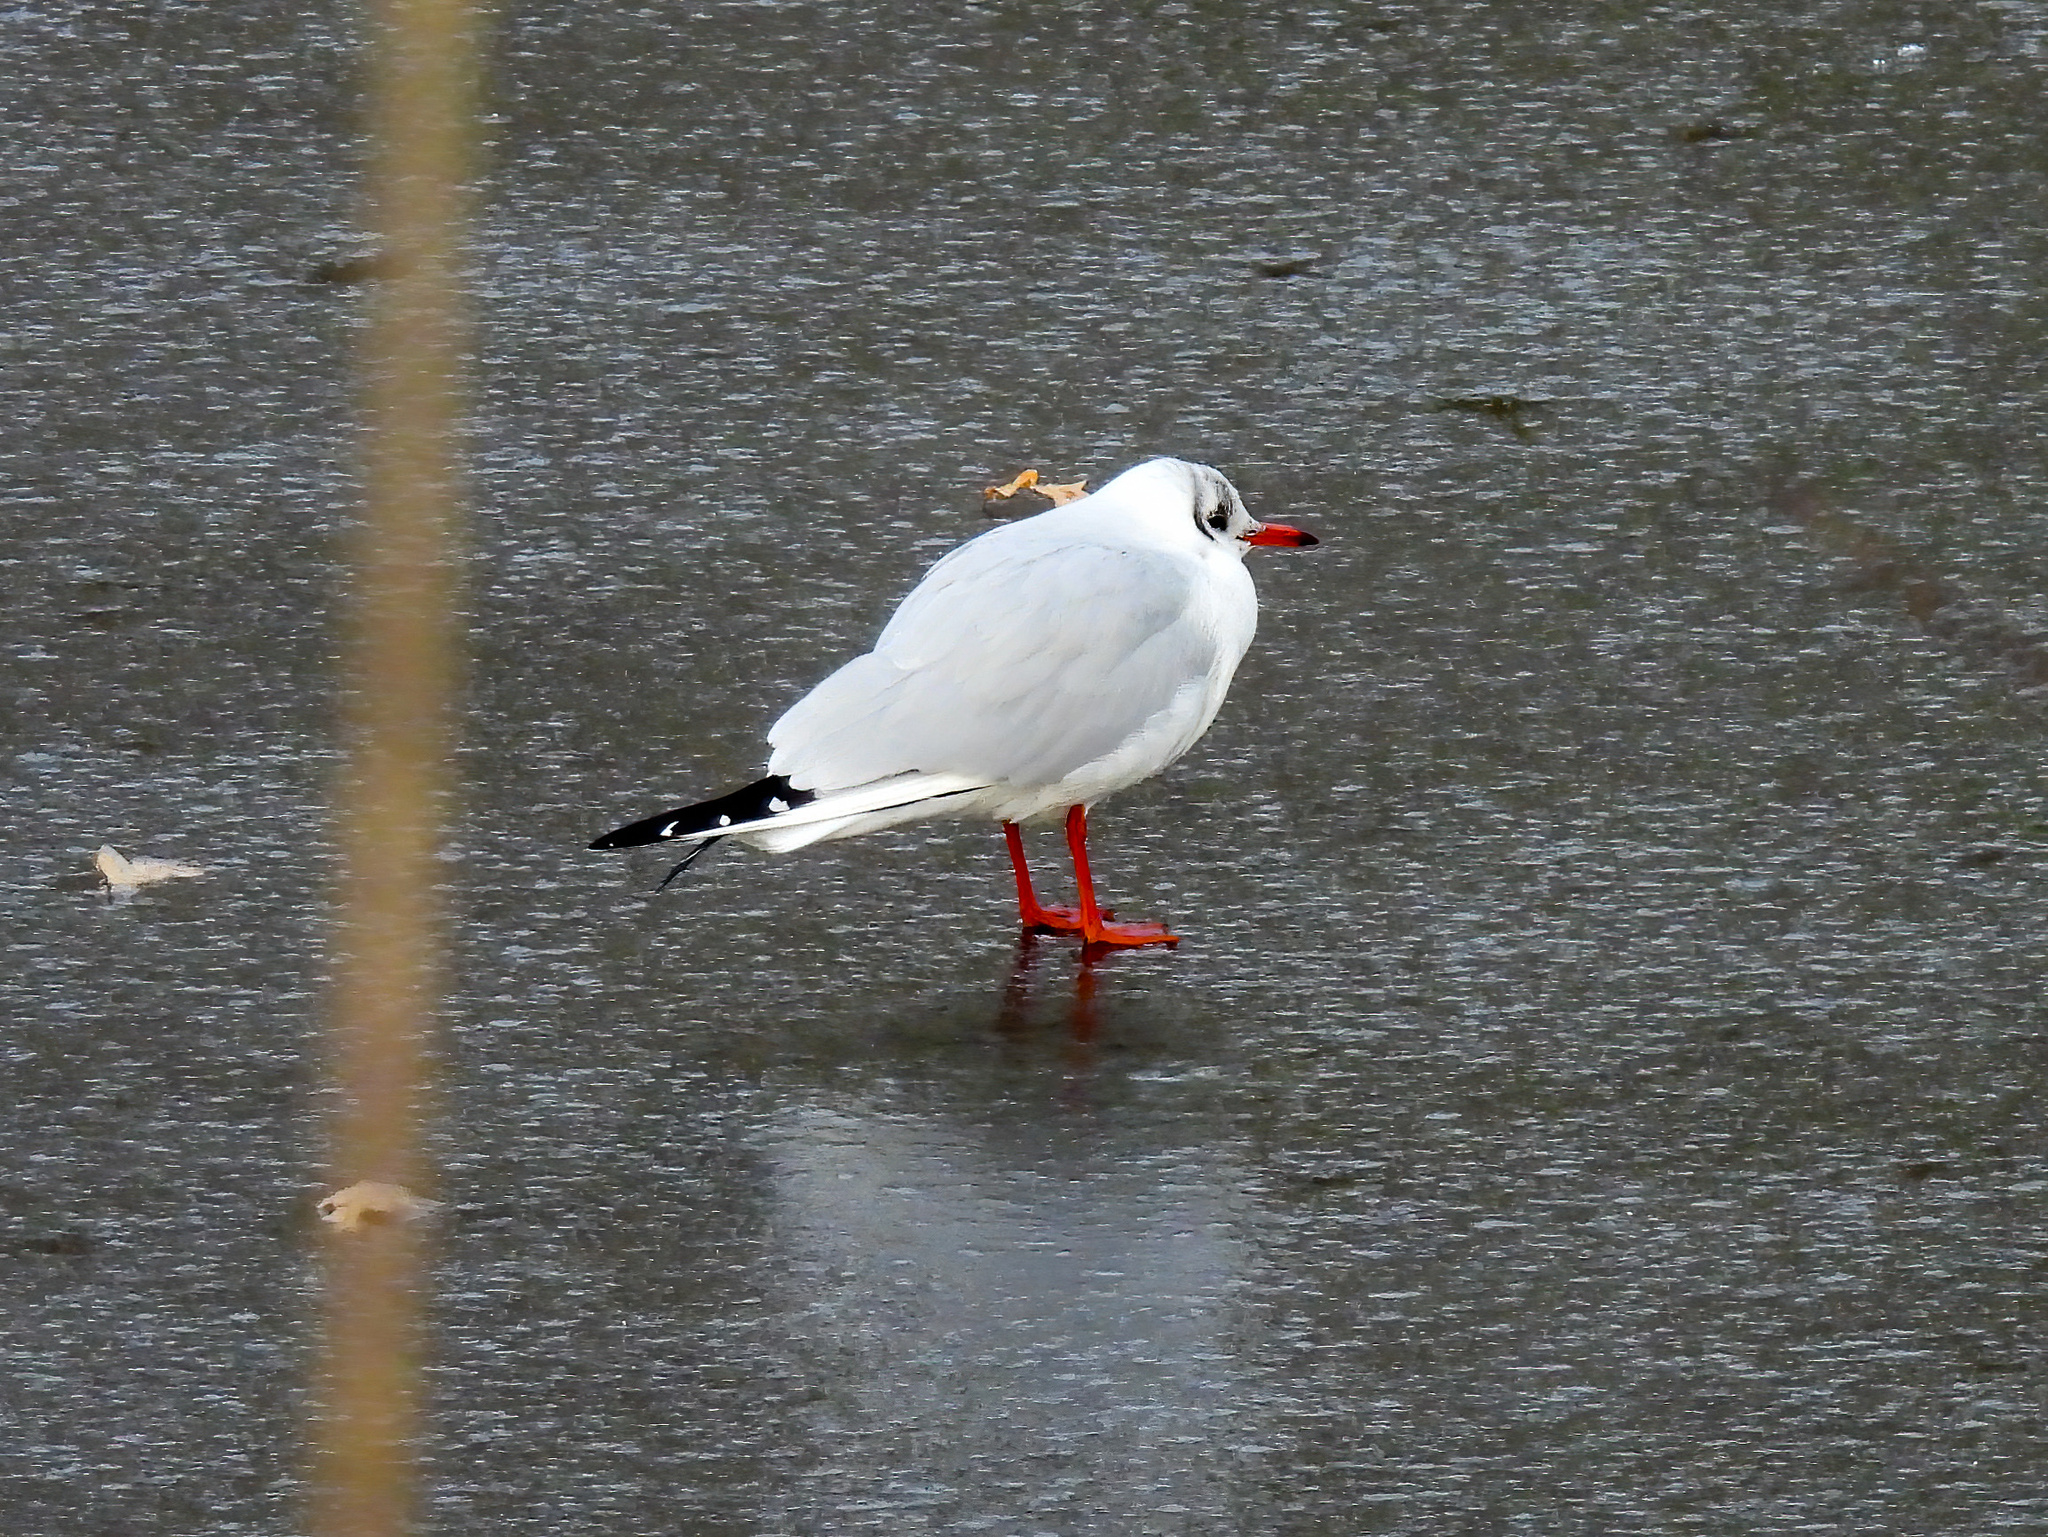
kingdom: Animalia
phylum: Chordata
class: Aves
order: Charadriiformes
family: Laridae
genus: Chroicocephalus
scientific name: Chroicocephalus ridibundus
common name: Black-headed gull
